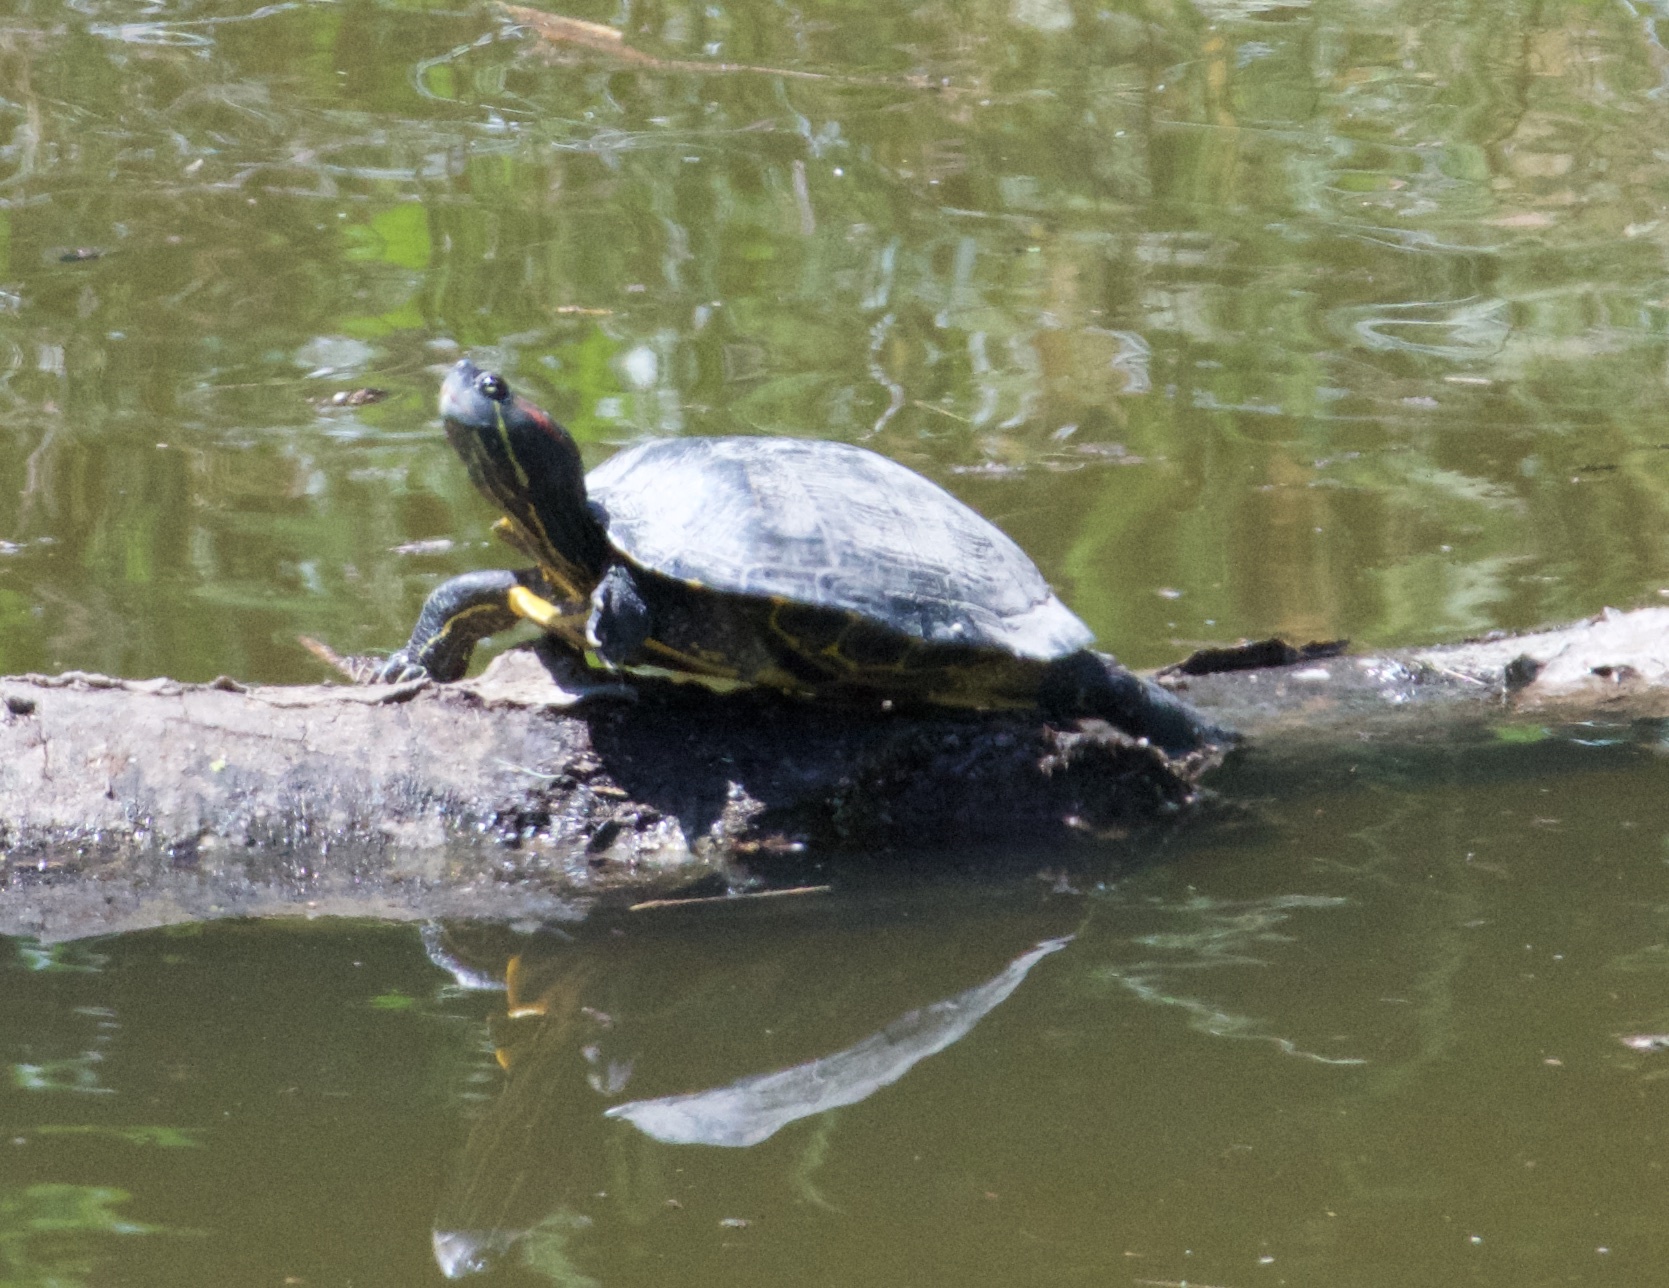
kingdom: Animalia
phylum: Chordata
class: Testudines
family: Emydidae
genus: Trachemys
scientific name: Trachemys scripta
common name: Slider
